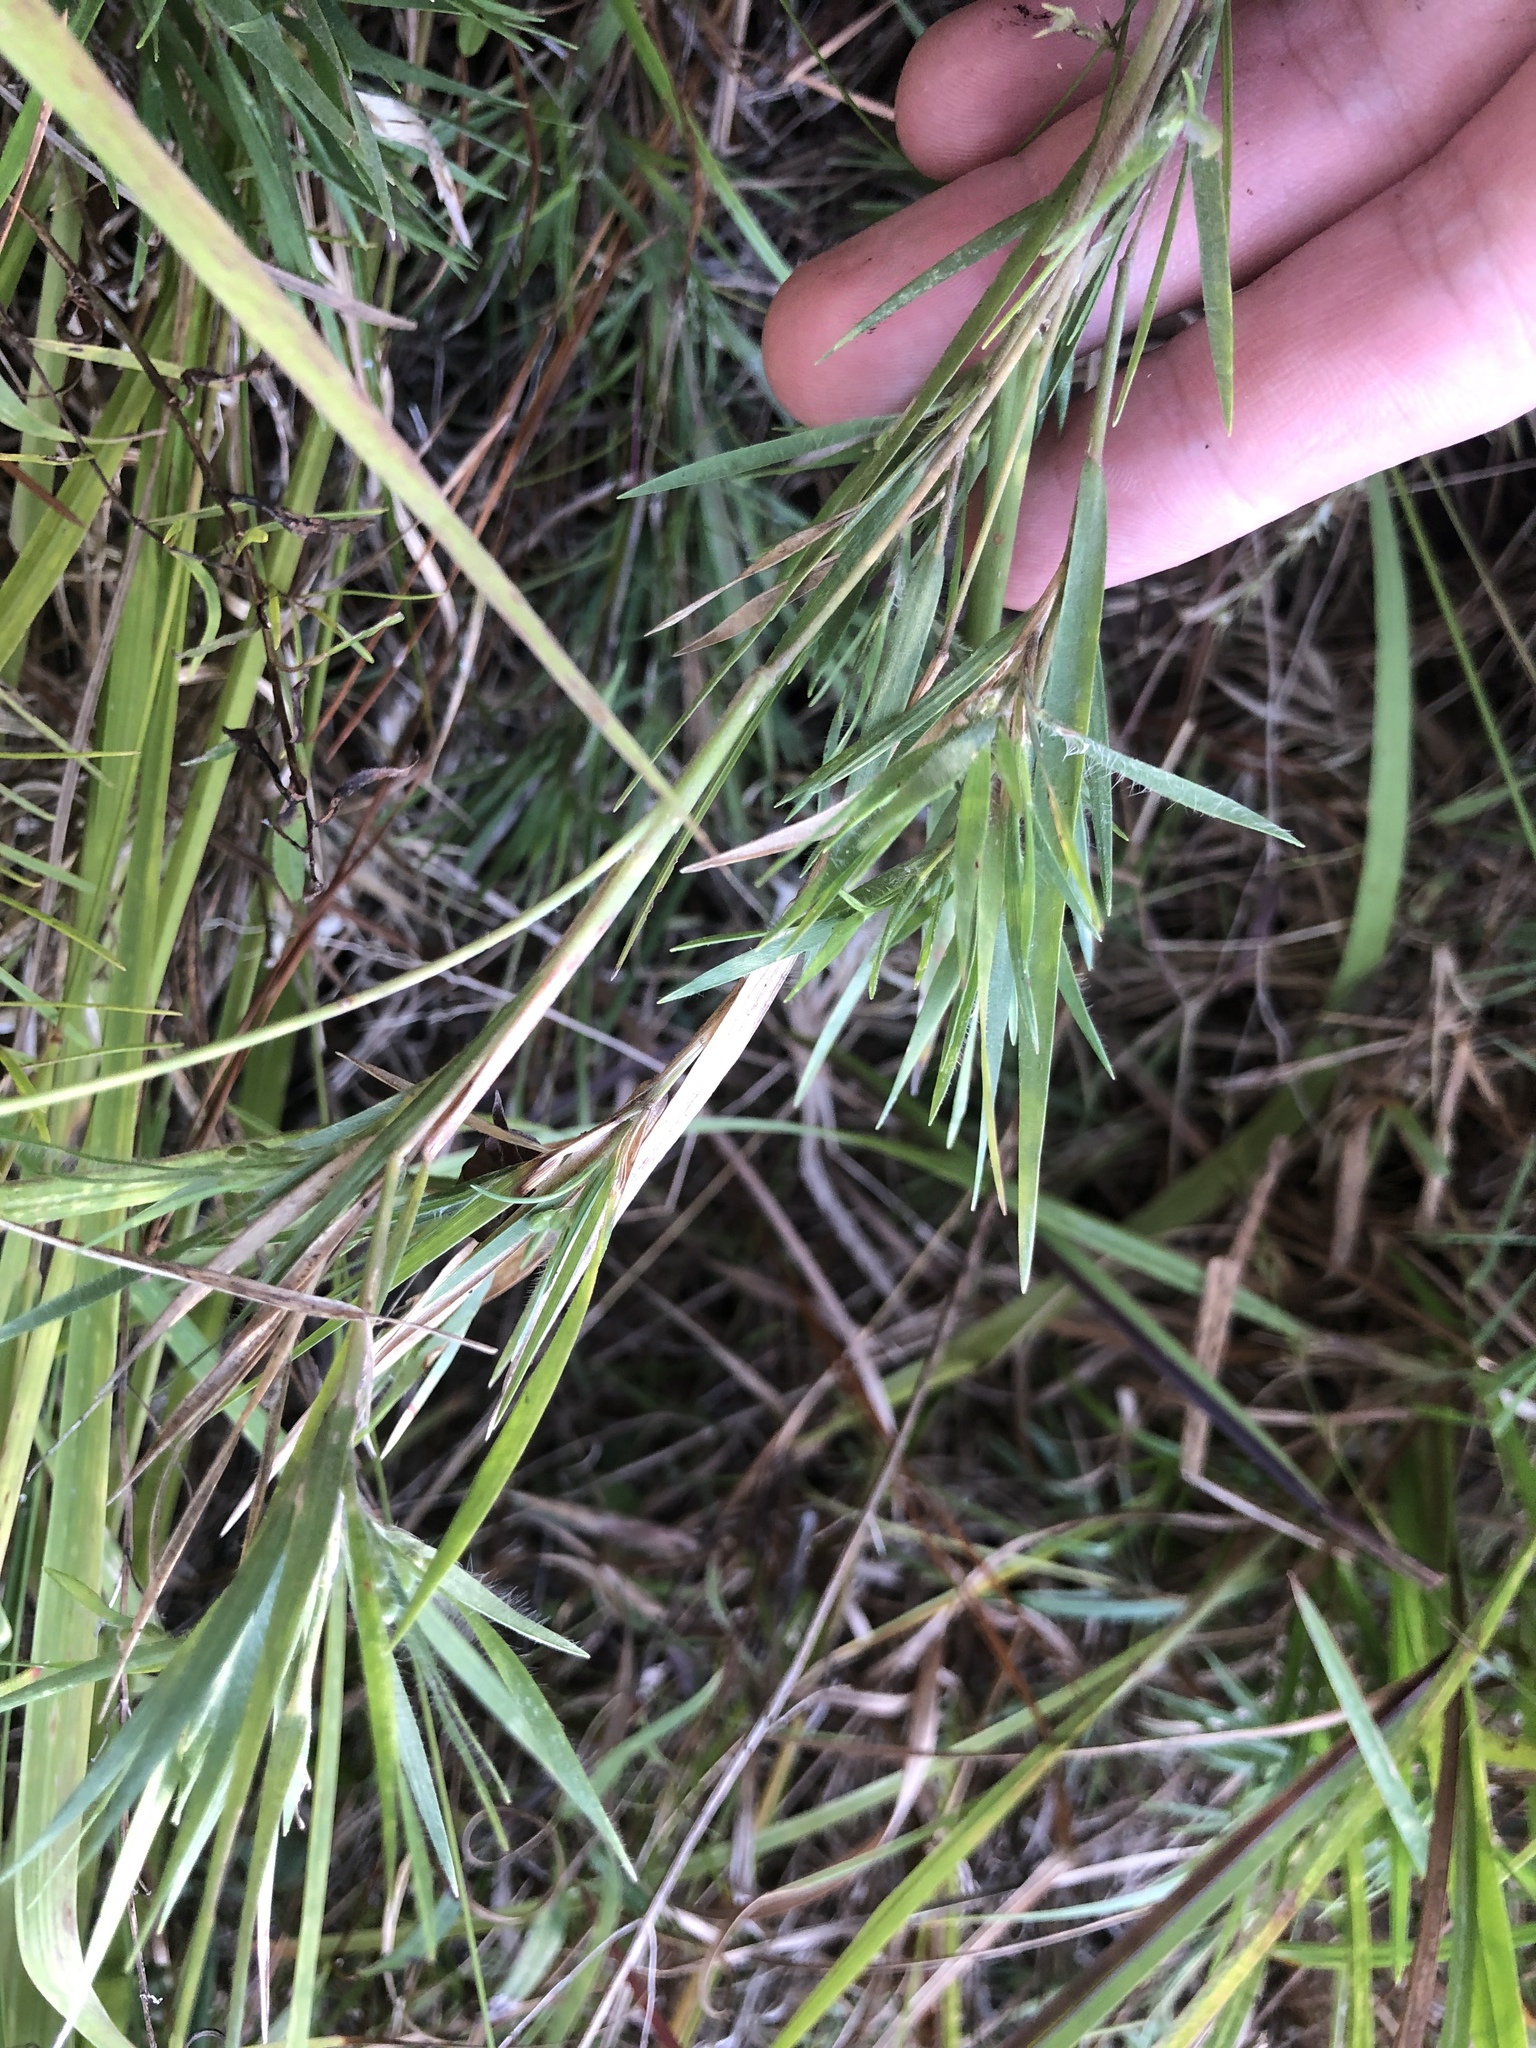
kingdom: Plantae
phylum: Tracheophyta
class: Liliopsida
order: Poales
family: Poaceae
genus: Dichanthelium
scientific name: Dichanthelium consanguineum
